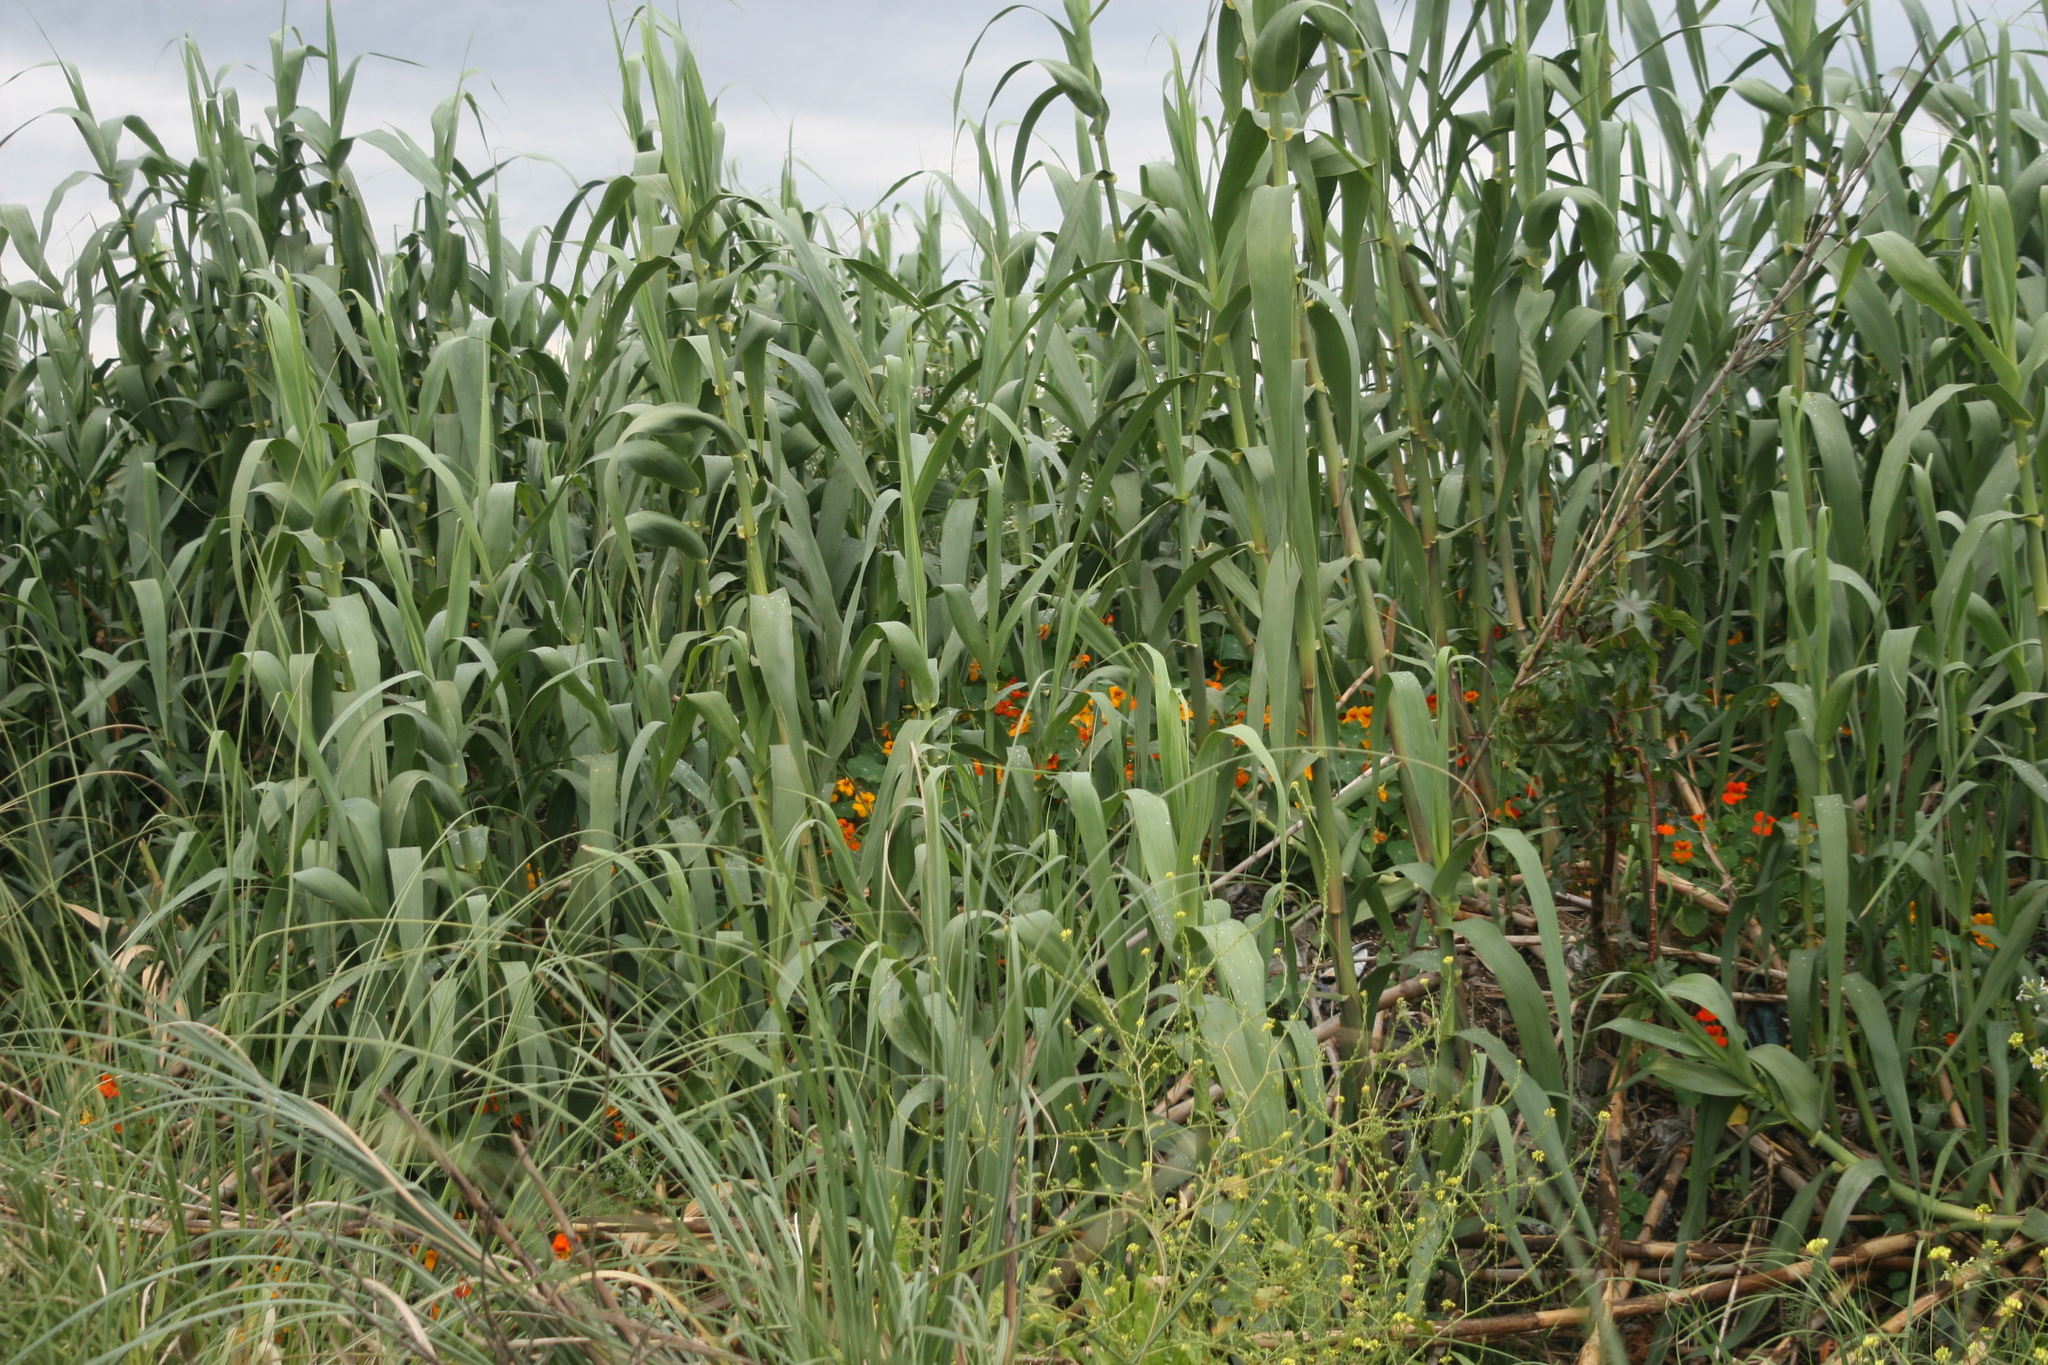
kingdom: Plantae
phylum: Tracheophyta
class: Liliopsida
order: Poales
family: Poaceae
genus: Arundo
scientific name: Arundo donax
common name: Giant reed
